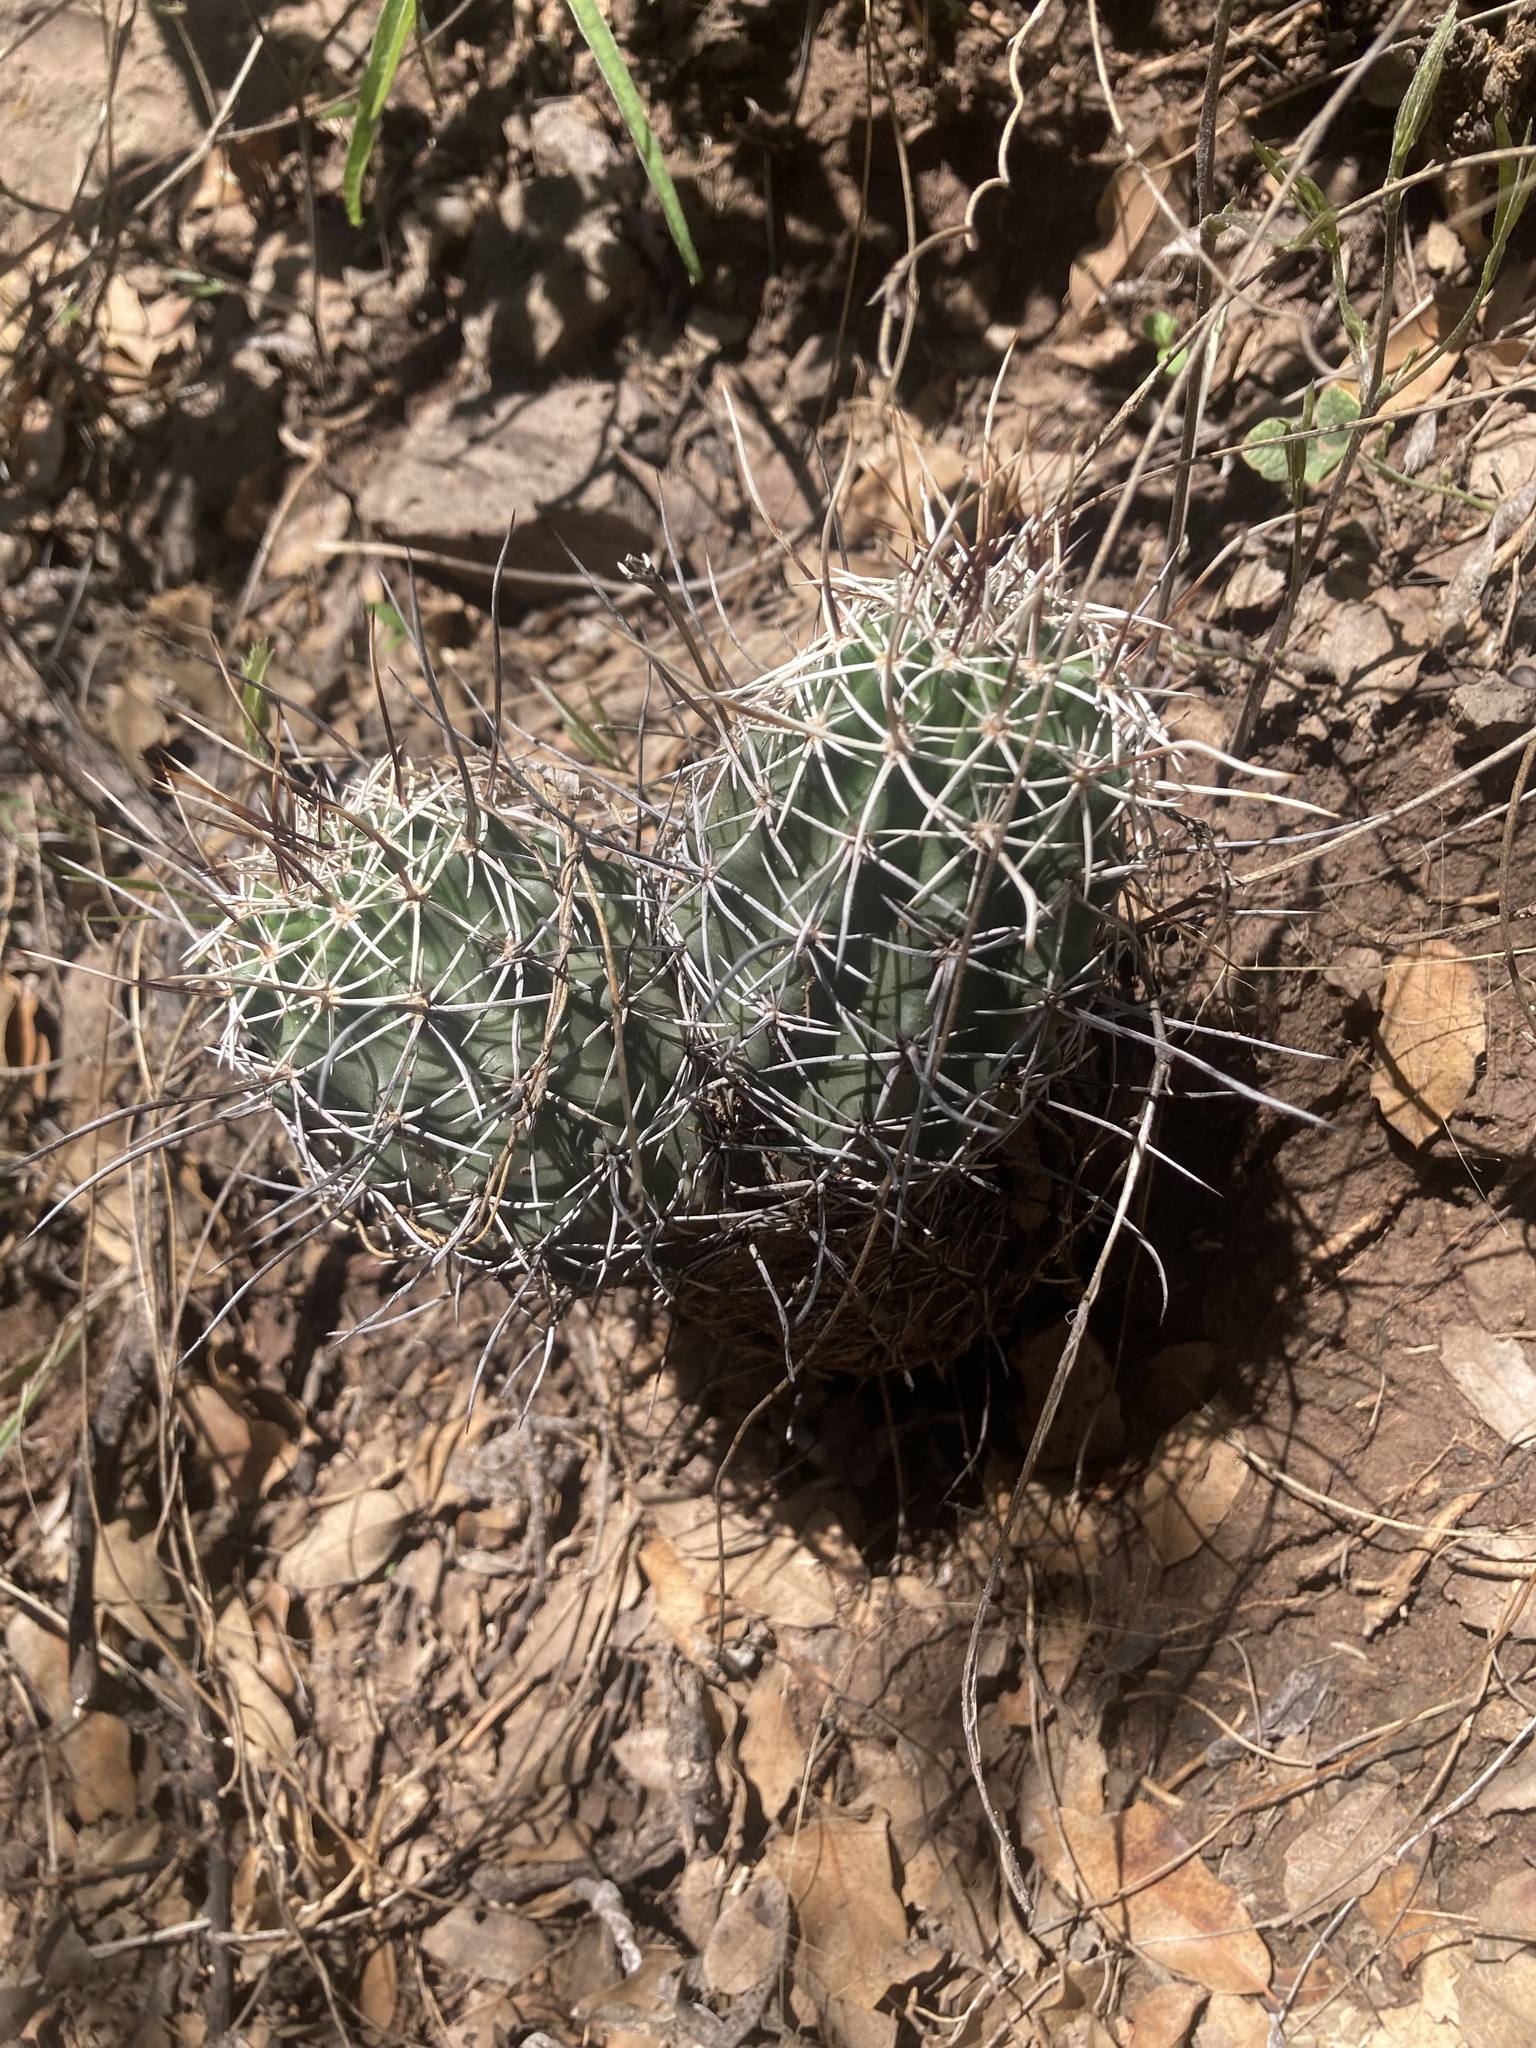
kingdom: Plantae
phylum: Tracheophyta
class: Magnoliopsida
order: Caryophyllales
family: Cactaceae
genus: Echinocereus
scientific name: Echinocereus fendleri
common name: Fendler's hedgehog cactus
